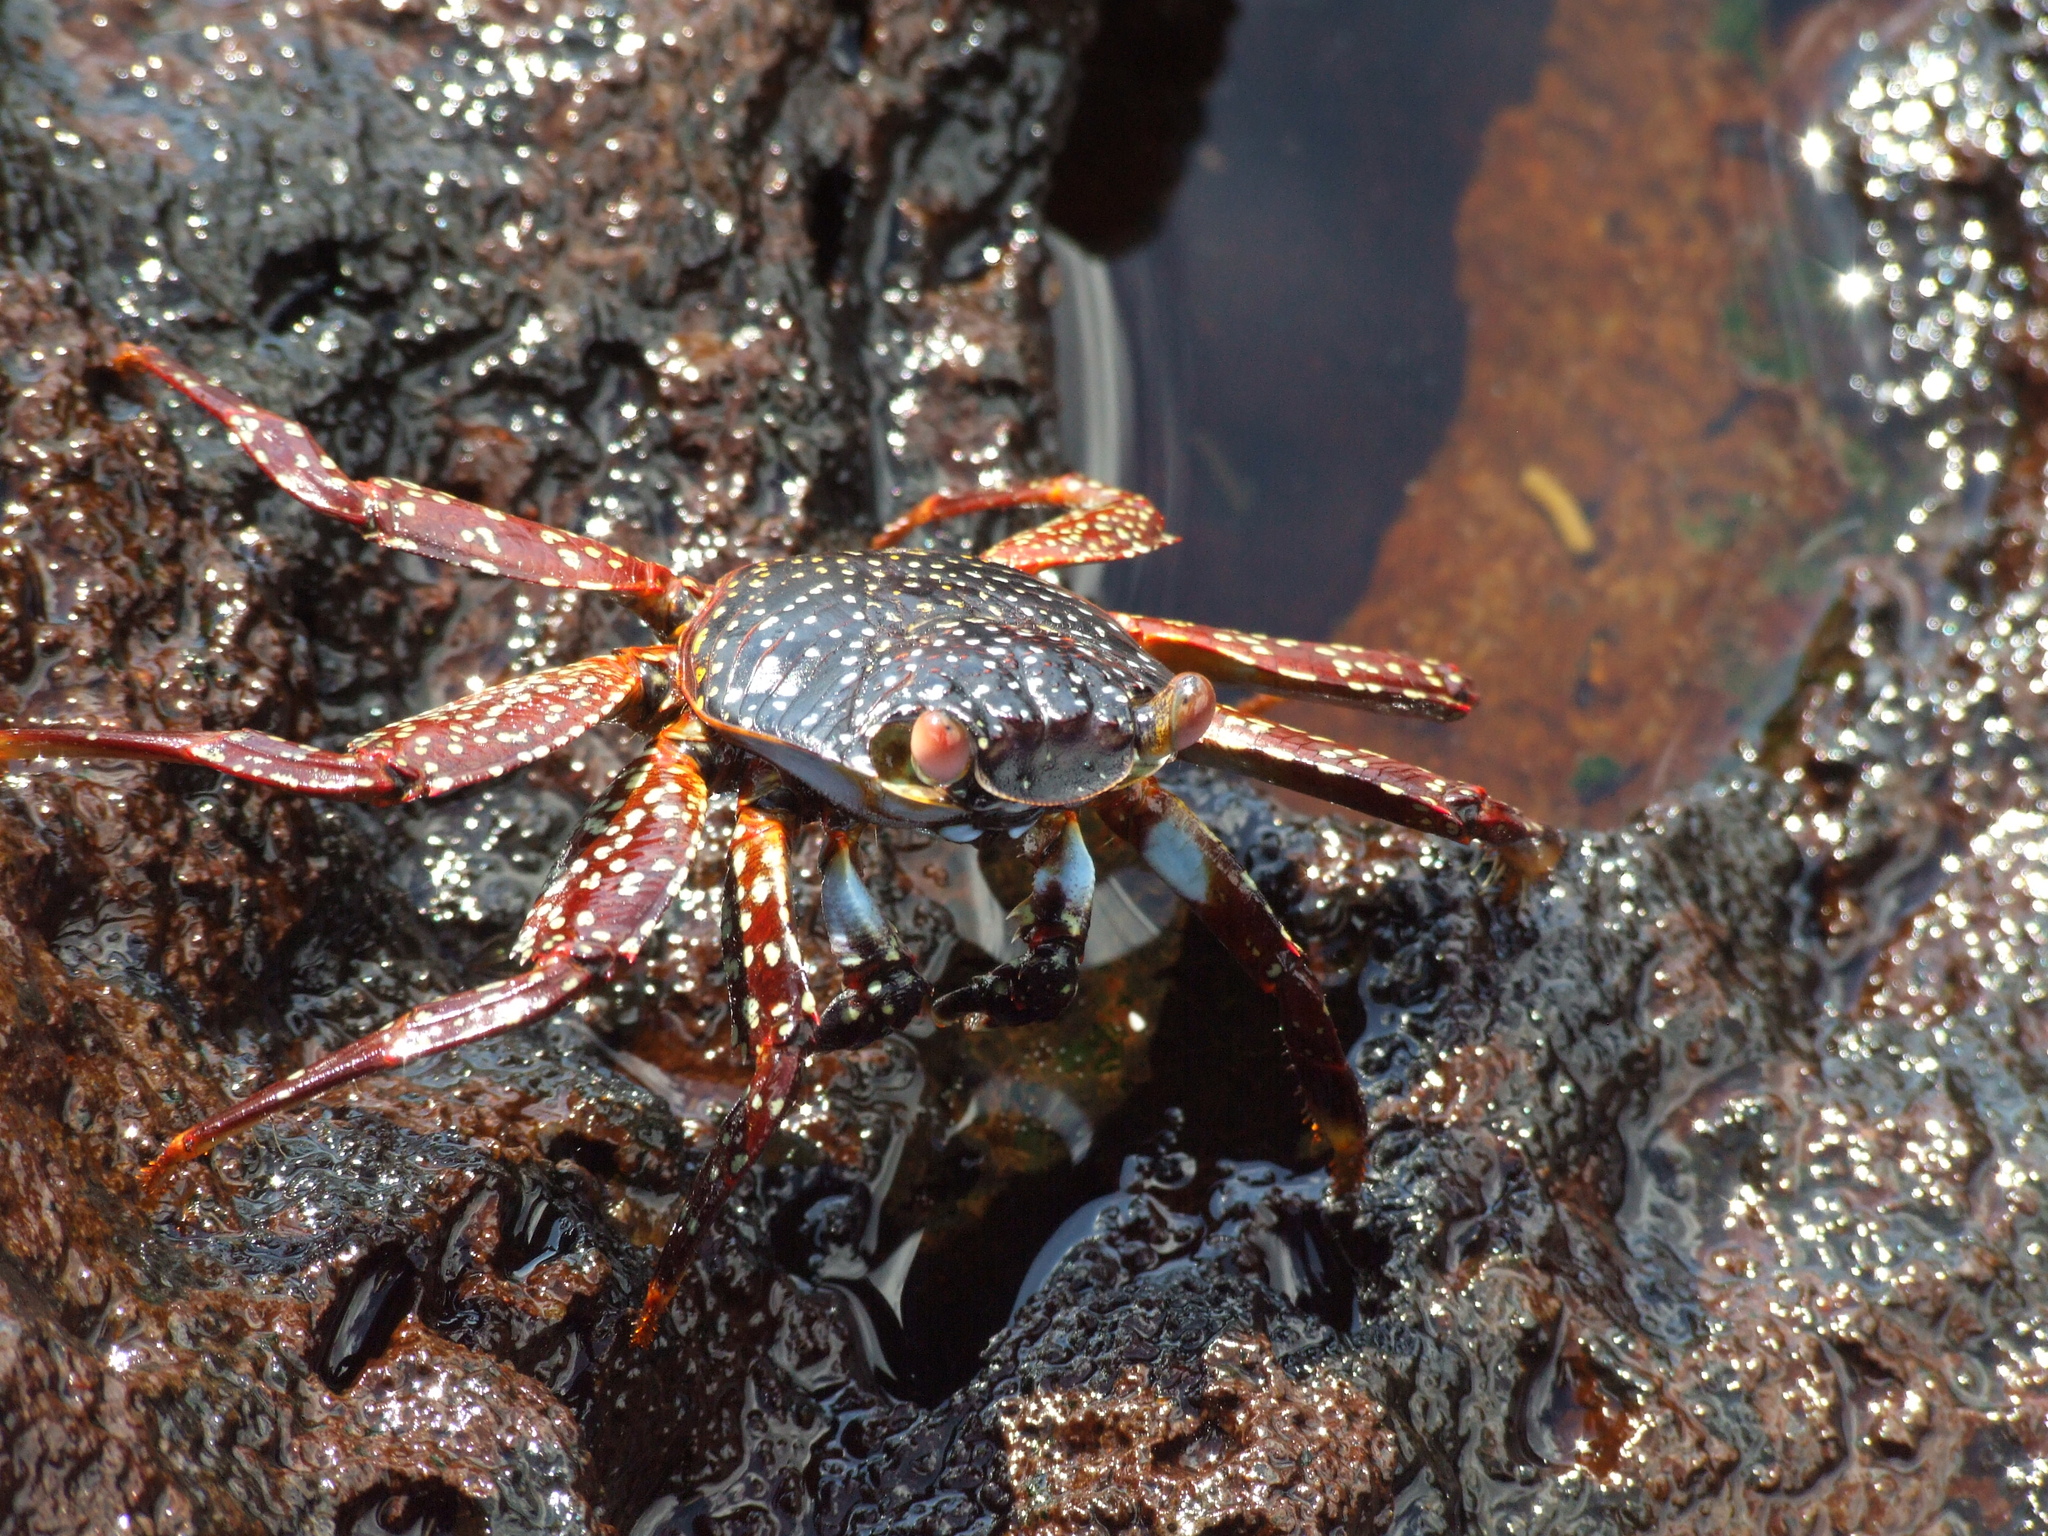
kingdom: Animalia
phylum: Arthropoda
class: Malacostraca
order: Decapoda
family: Grapsidae
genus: Grapsus
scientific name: Grapsus grapsus
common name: Sally lightfoot
